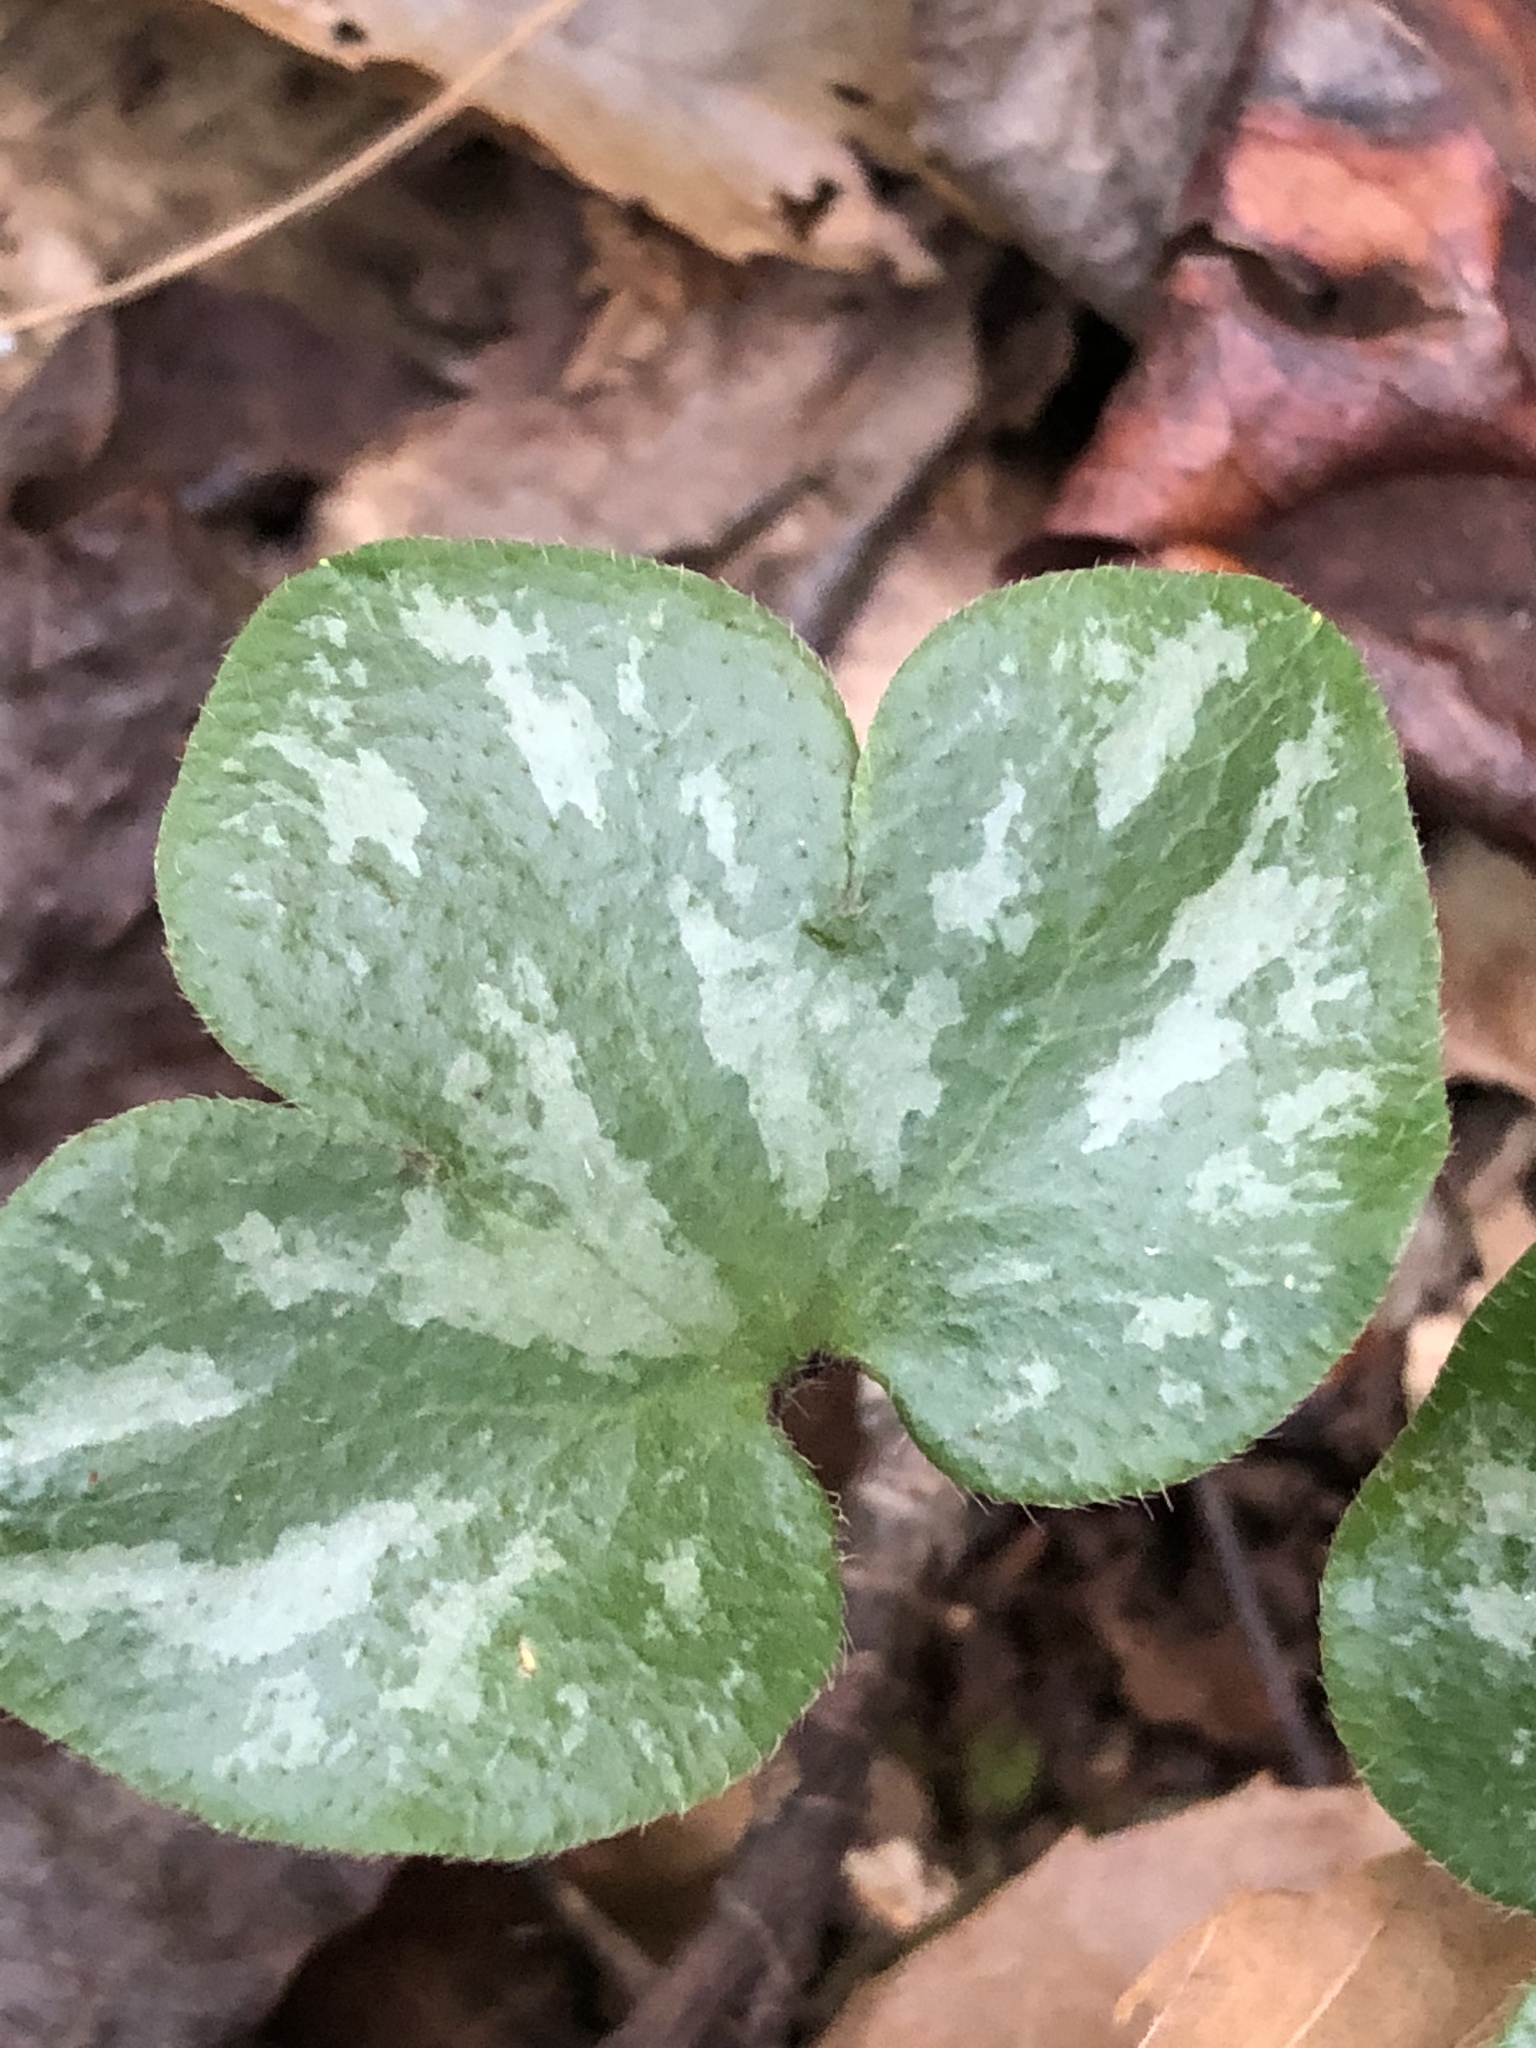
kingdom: Plantae
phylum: Tracheophyta
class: Magnoliopsida
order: Ranunculales
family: Ranunculaceae
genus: Hepatica
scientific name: Hepatica americana
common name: American hepatica
